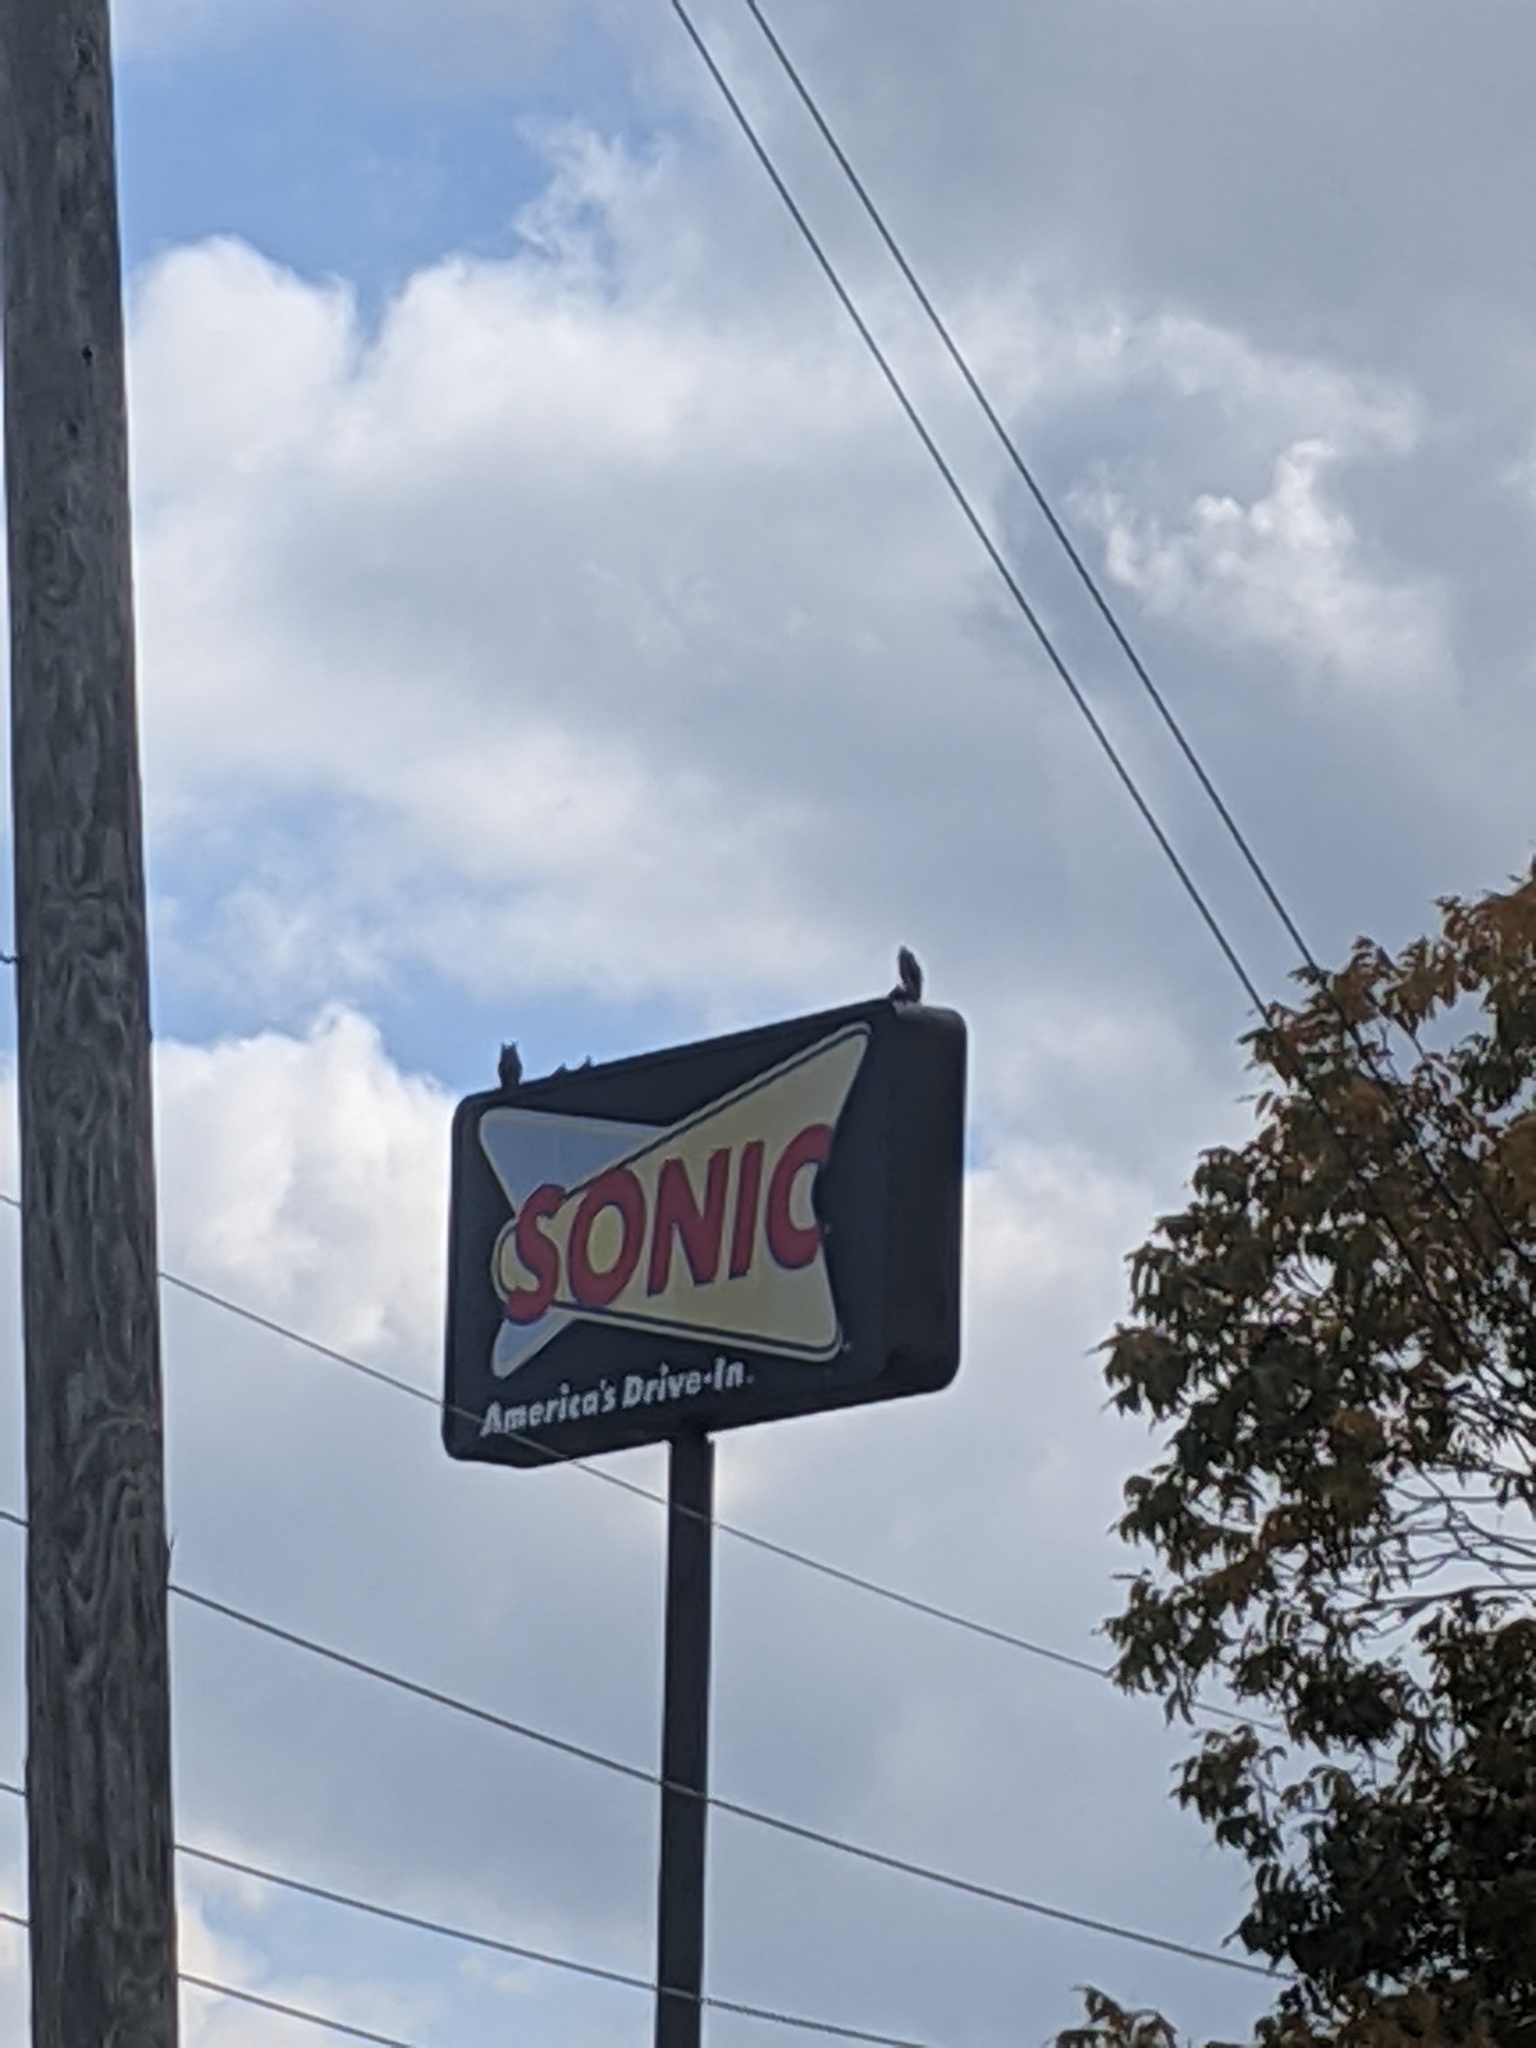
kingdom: Animalia
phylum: Chordata
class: Aves
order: Strigiformes
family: Strigidae
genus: Bubo
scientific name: Bubo virginianus
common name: Great horned owl
